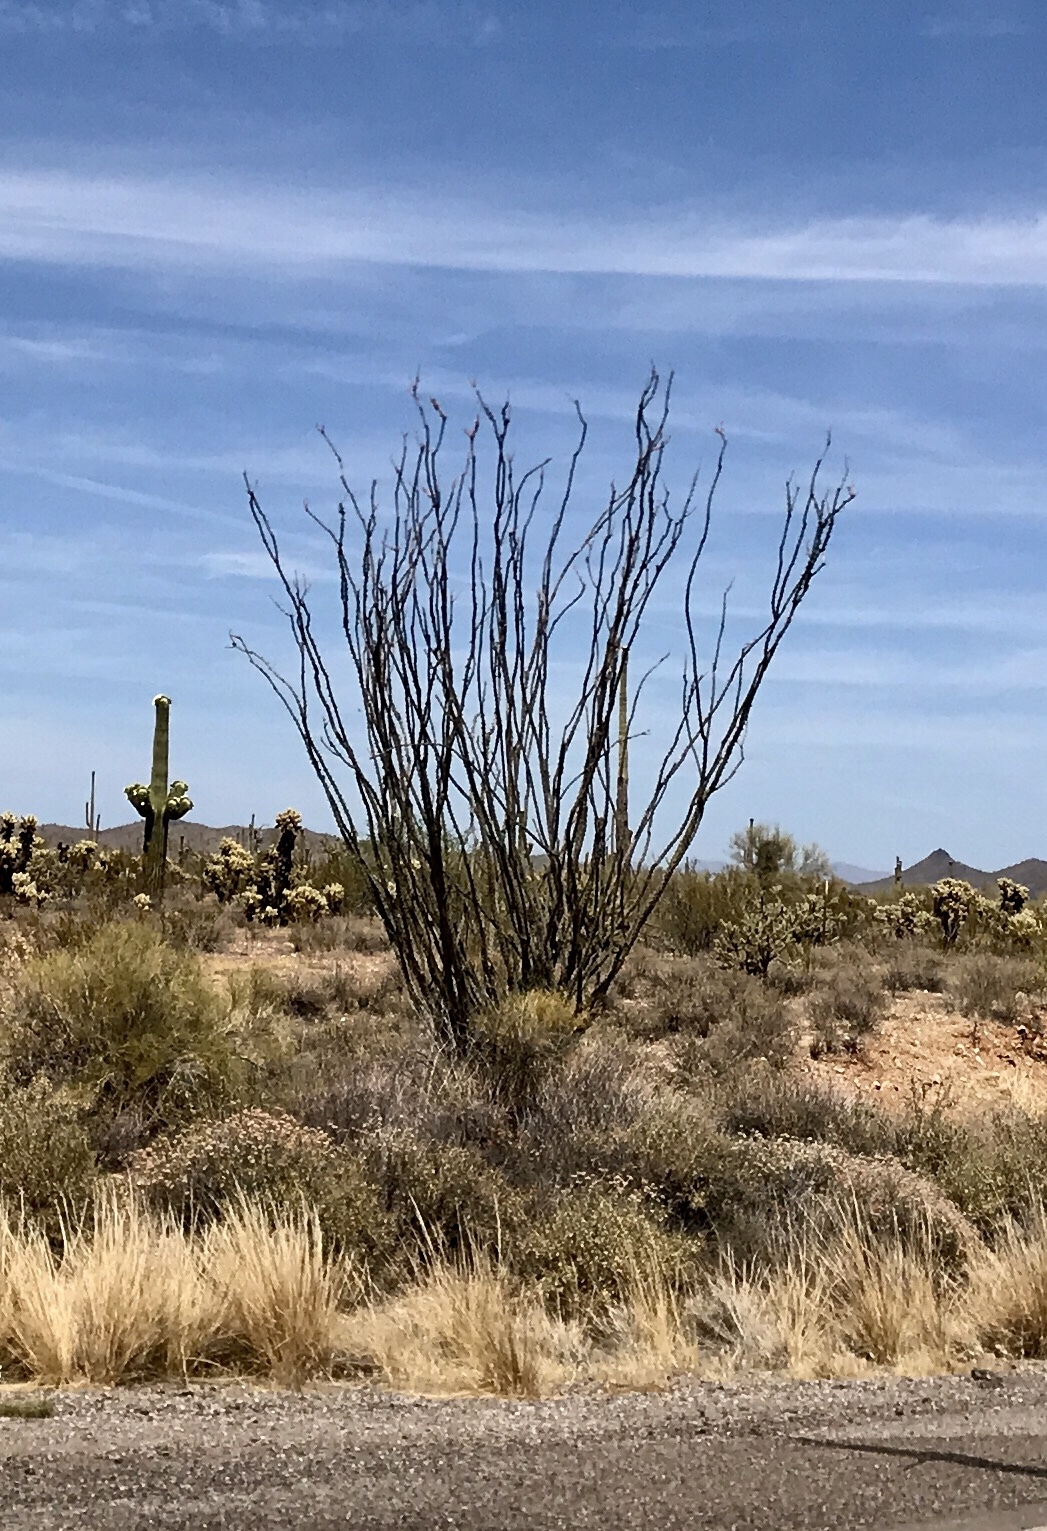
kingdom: Plantae
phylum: Tracheophyta
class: Magnoliopsida
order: Ericales
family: Fouquieriaceae
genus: Fouquieria
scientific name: Fouquieria splendens
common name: Vine-cactus
